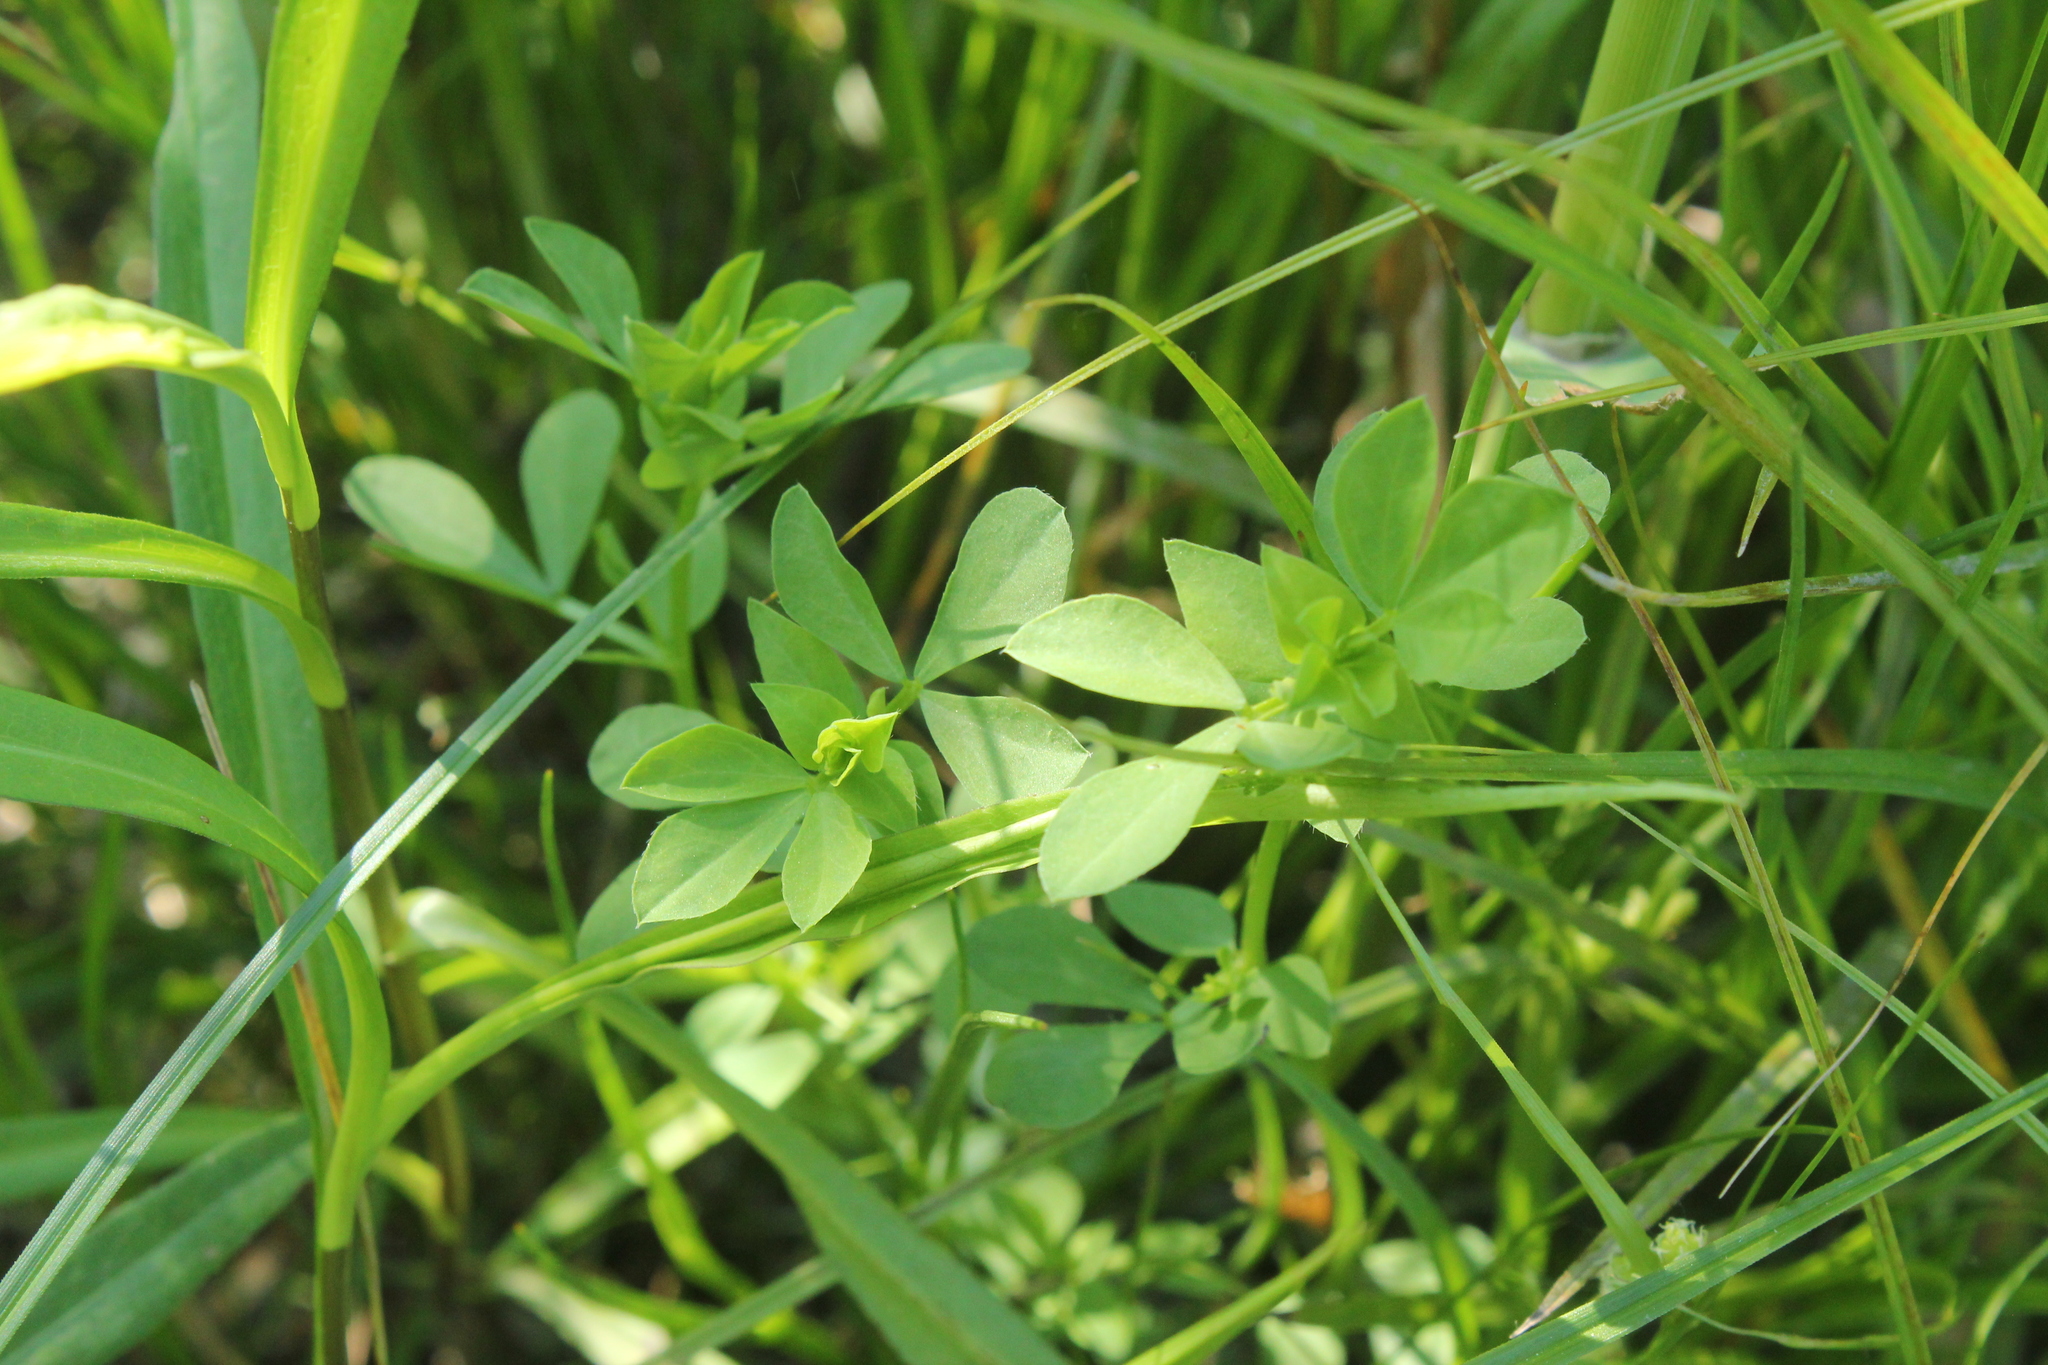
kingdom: Plantae
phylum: Tracheophyta
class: Magnoliopsida
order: Fabales
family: Fabaceae
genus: Lotus
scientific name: Lotus corniculatus
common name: Common bird's-foot-trefoil
